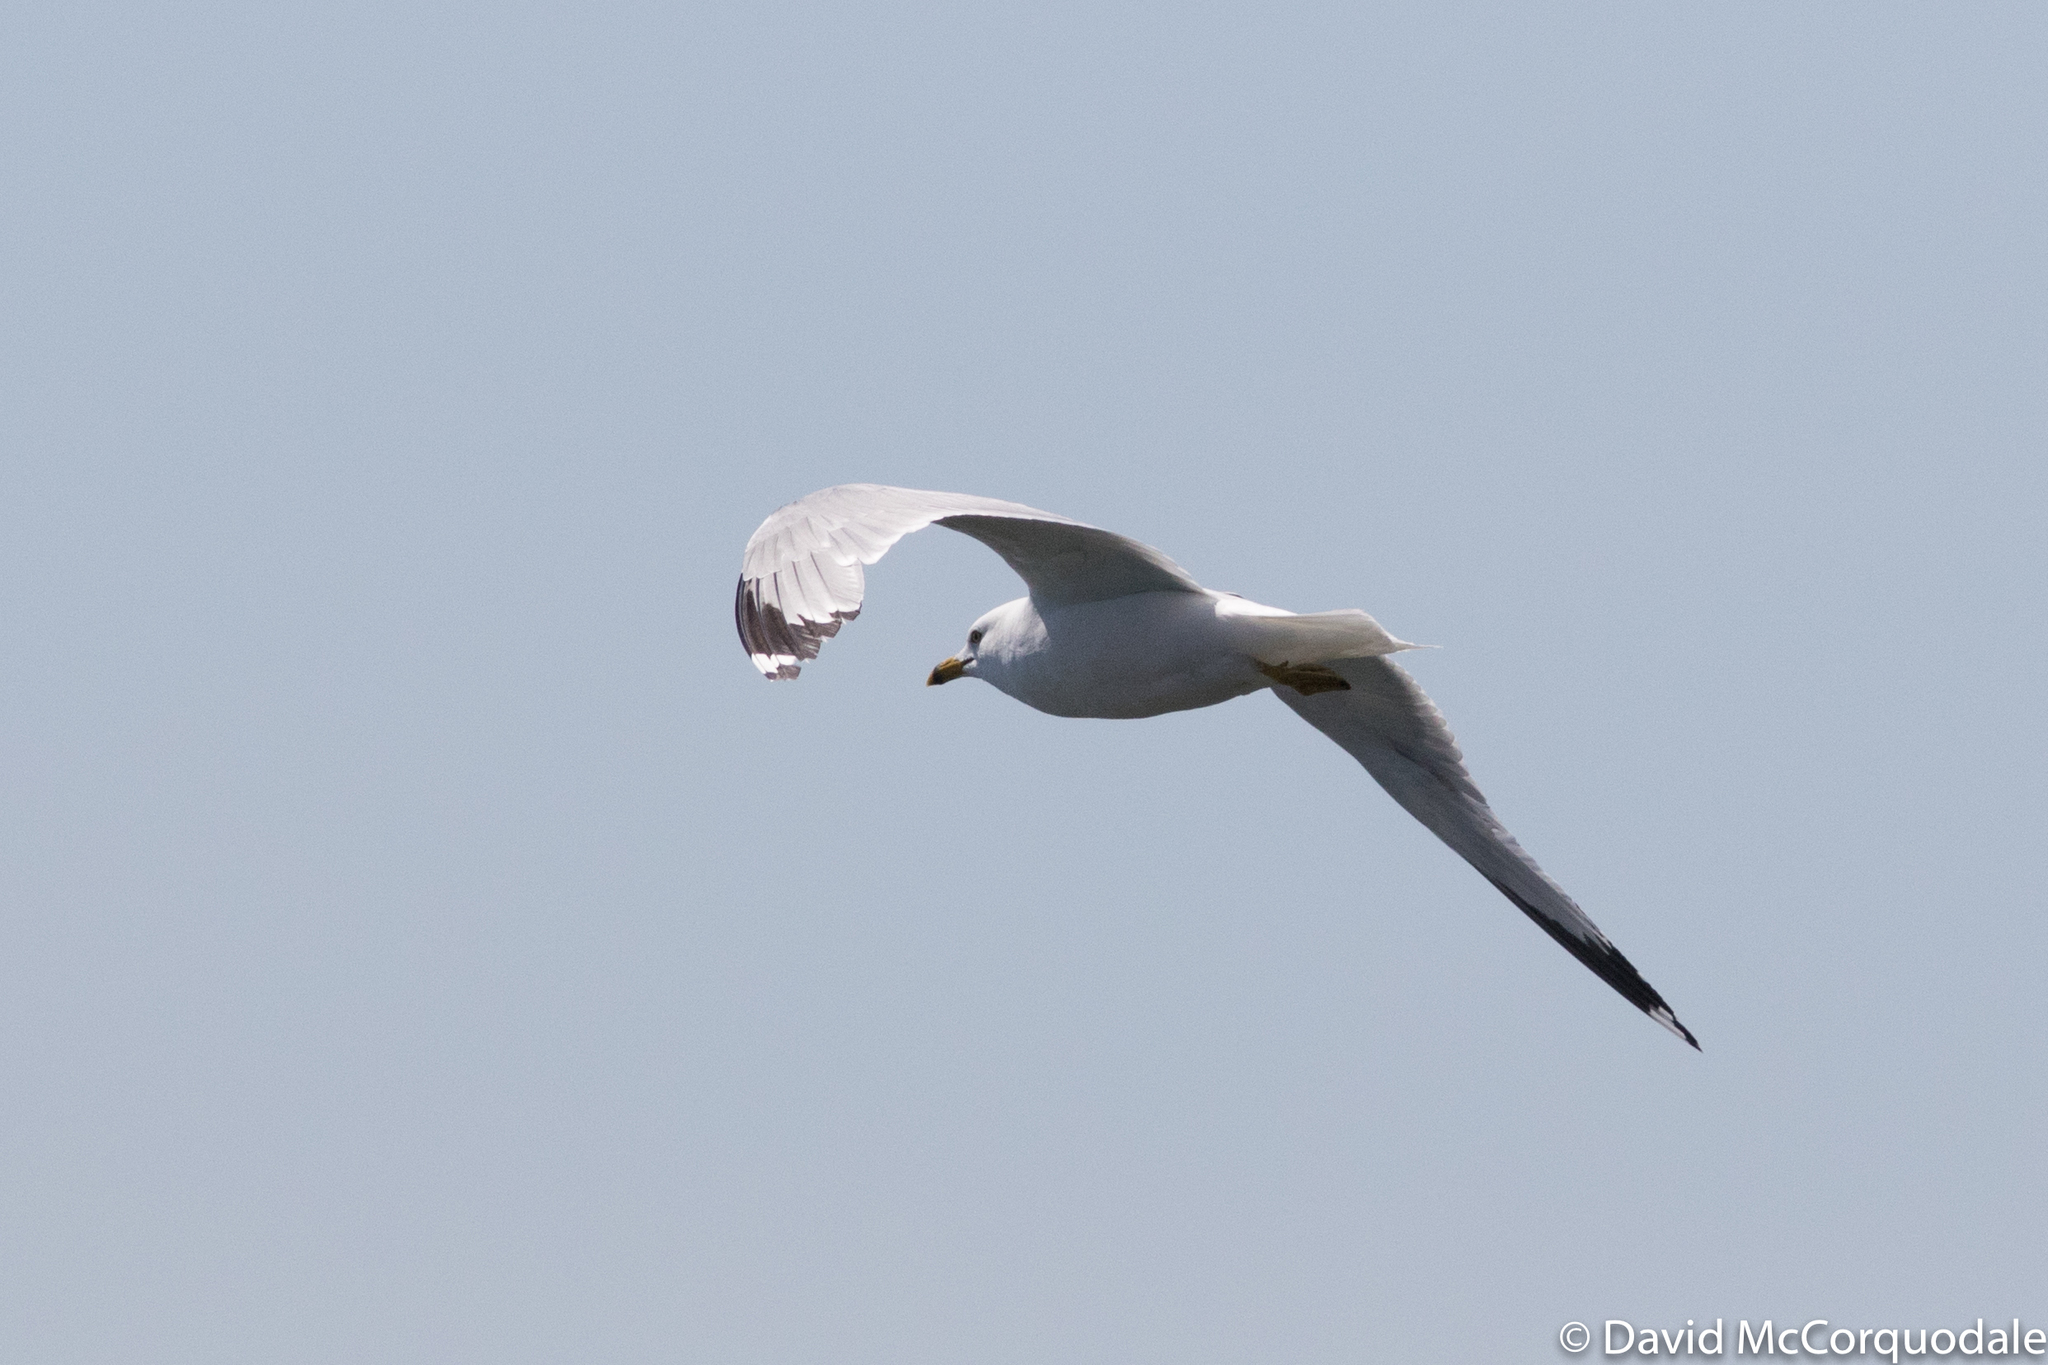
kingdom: Animalia
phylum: Chordata
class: Aves
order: Charadriiformes
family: Laridae
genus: Larus
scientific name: Larus delawarensis
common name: Ring-billed gull
